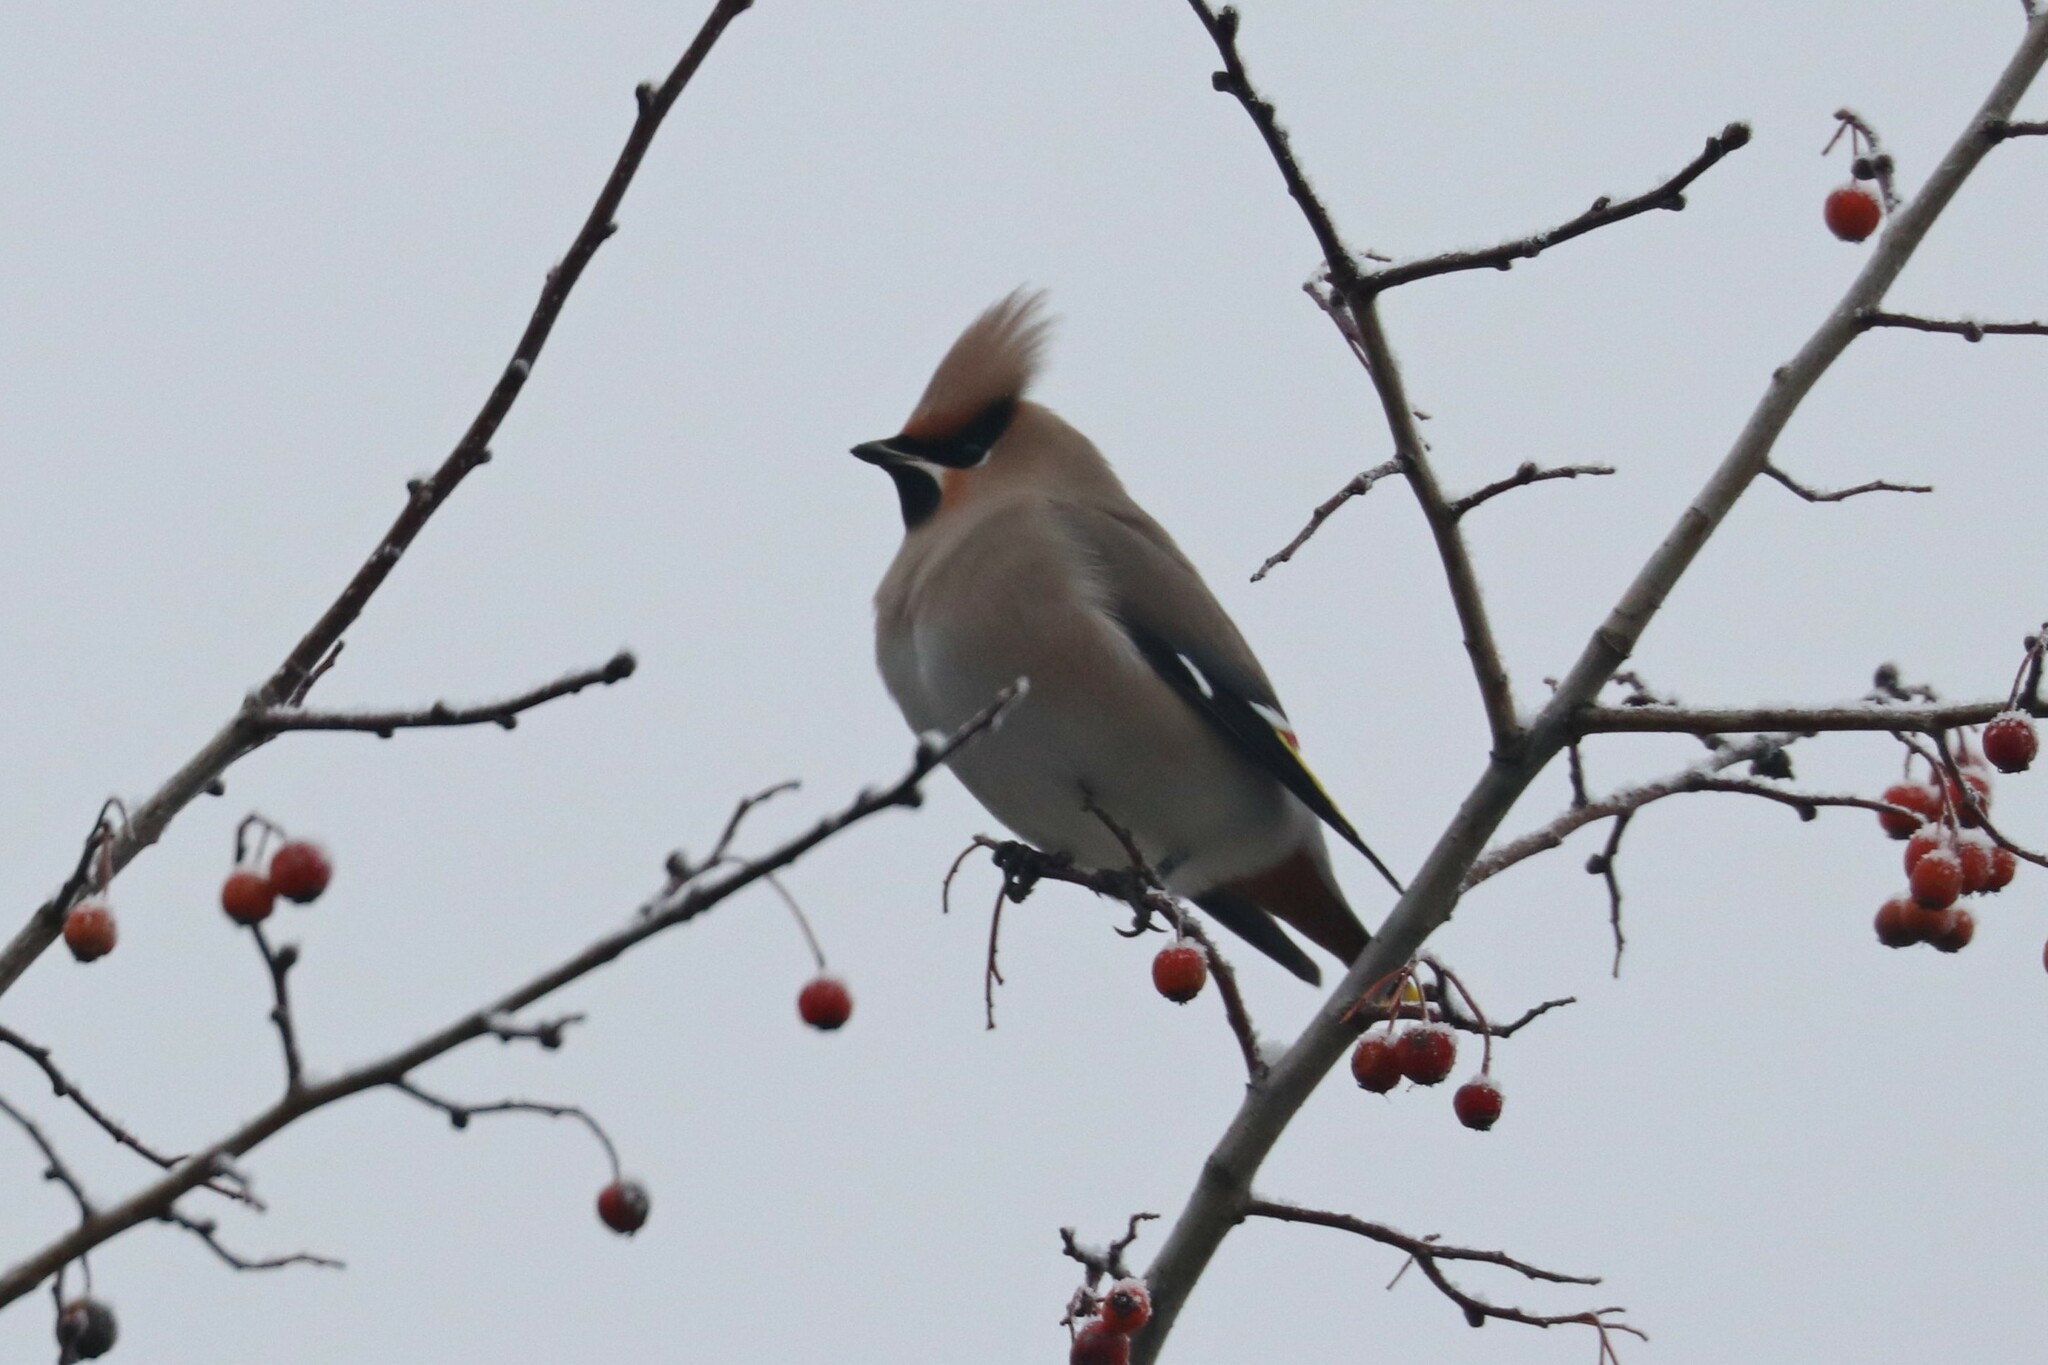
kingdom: Animalia
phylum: Chordata
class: Aves
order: Passeriformes
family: Bombycillidae
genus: Bombycilla
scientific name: Bombycilla garrulus
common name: Bohemian waxwing
